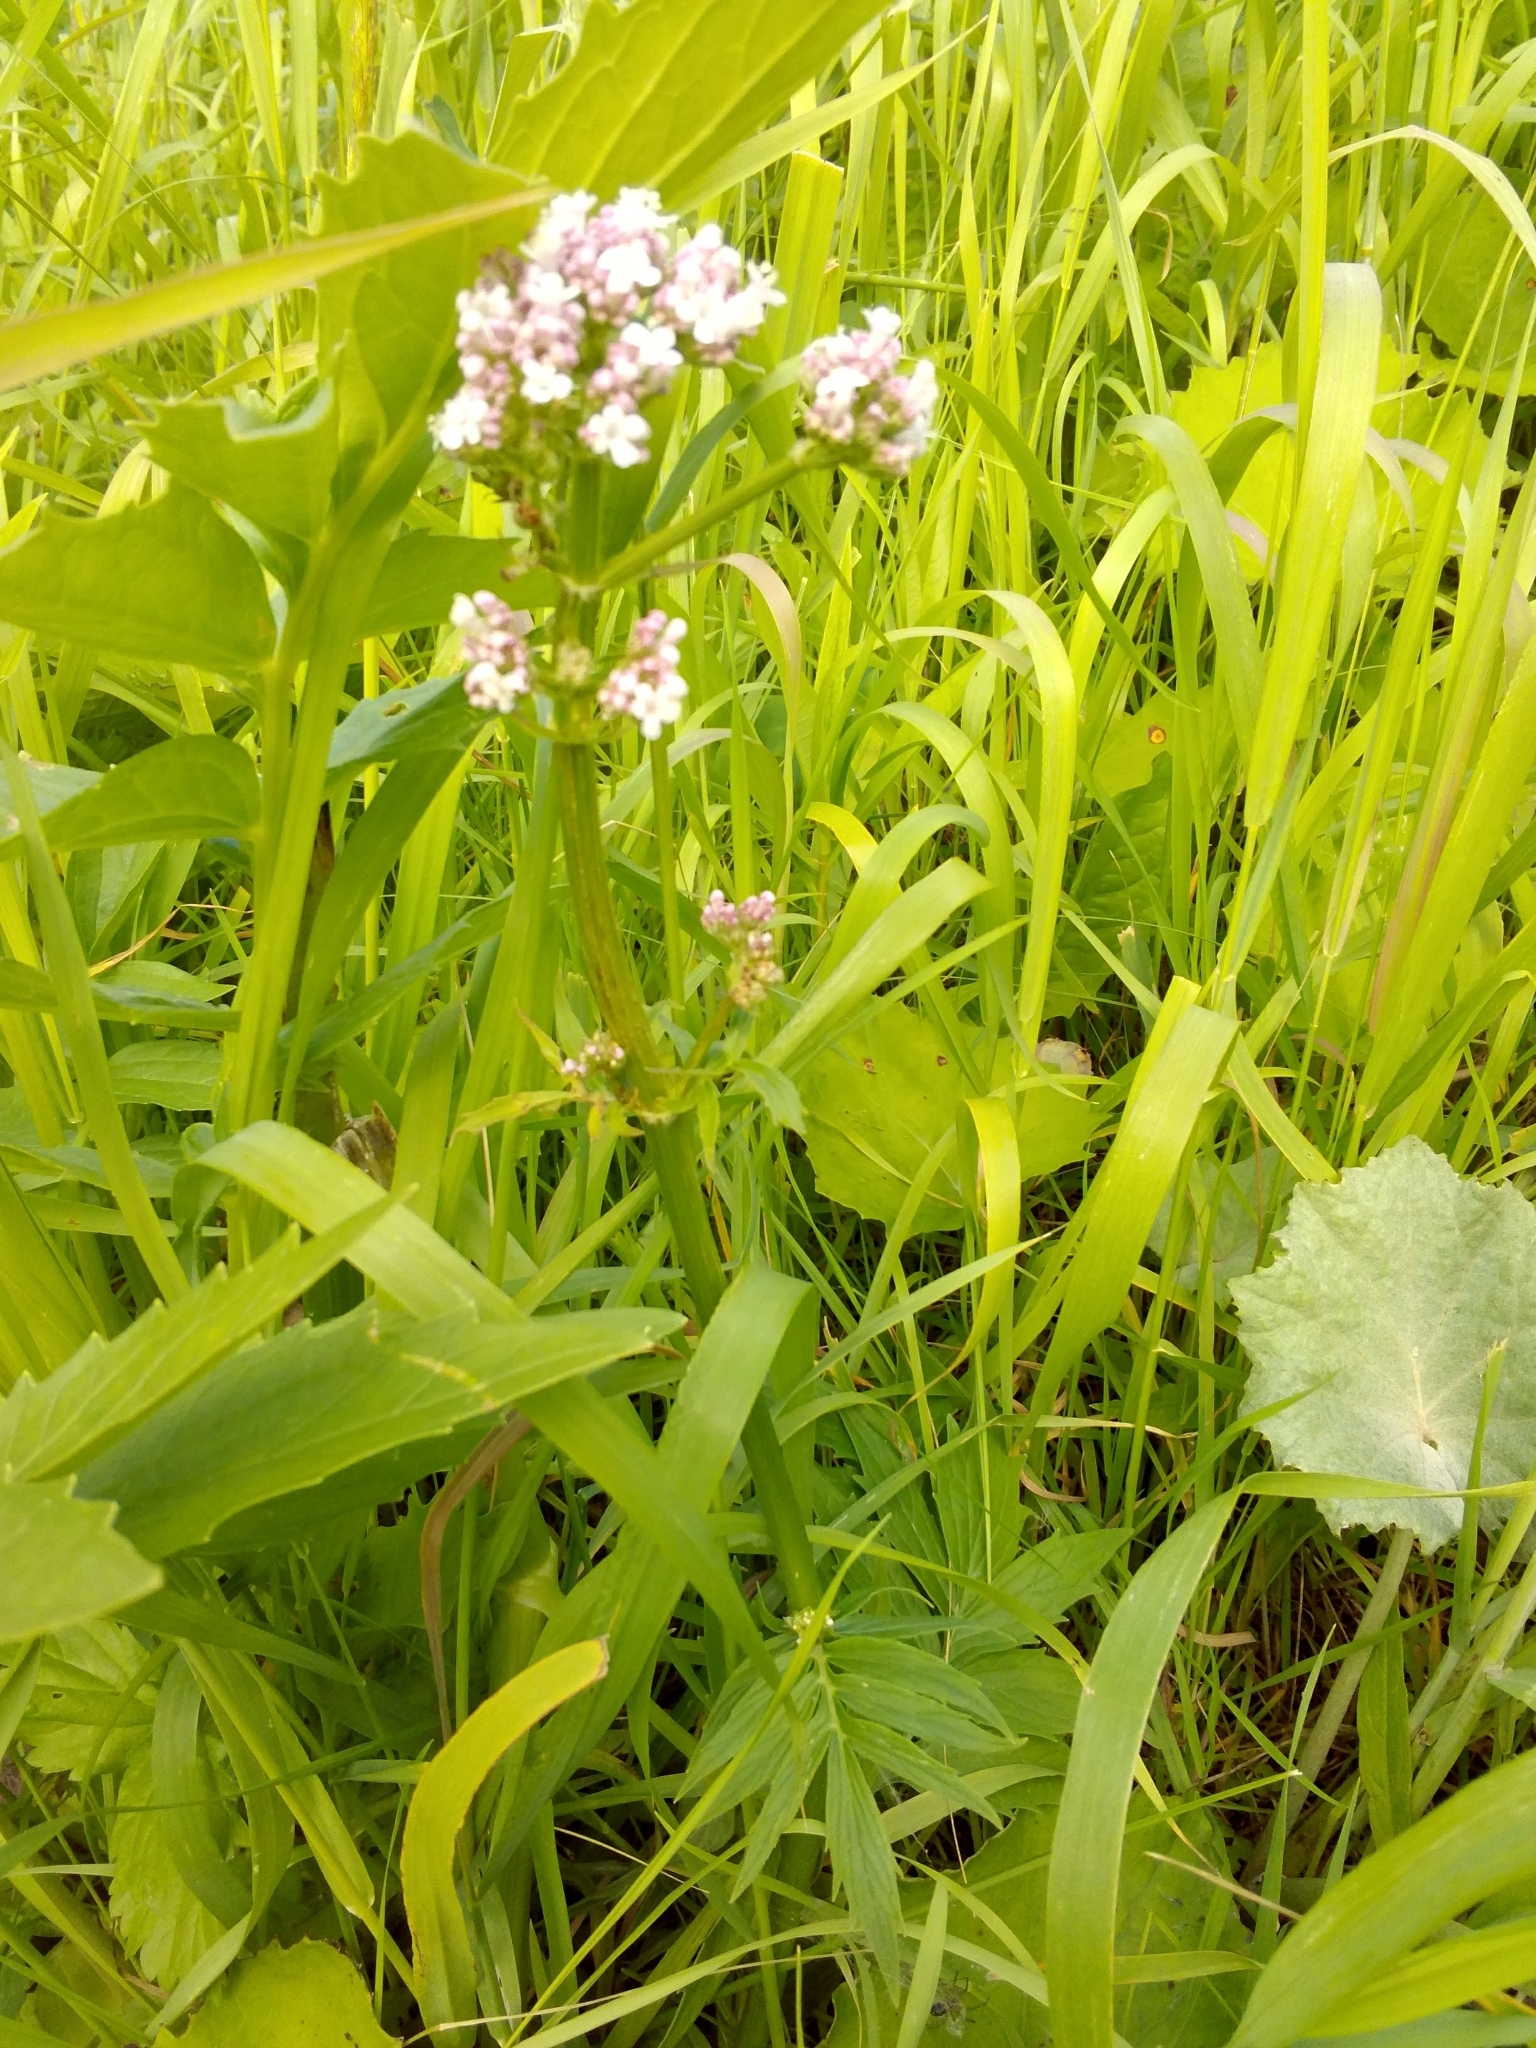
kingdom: Plantae
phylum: Tracheophyta
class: Magnoliopsida
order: Dipsacales
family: Caprifoliaceae
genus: Valeriana
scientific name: Valeriana officinalis
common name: Common valerian
